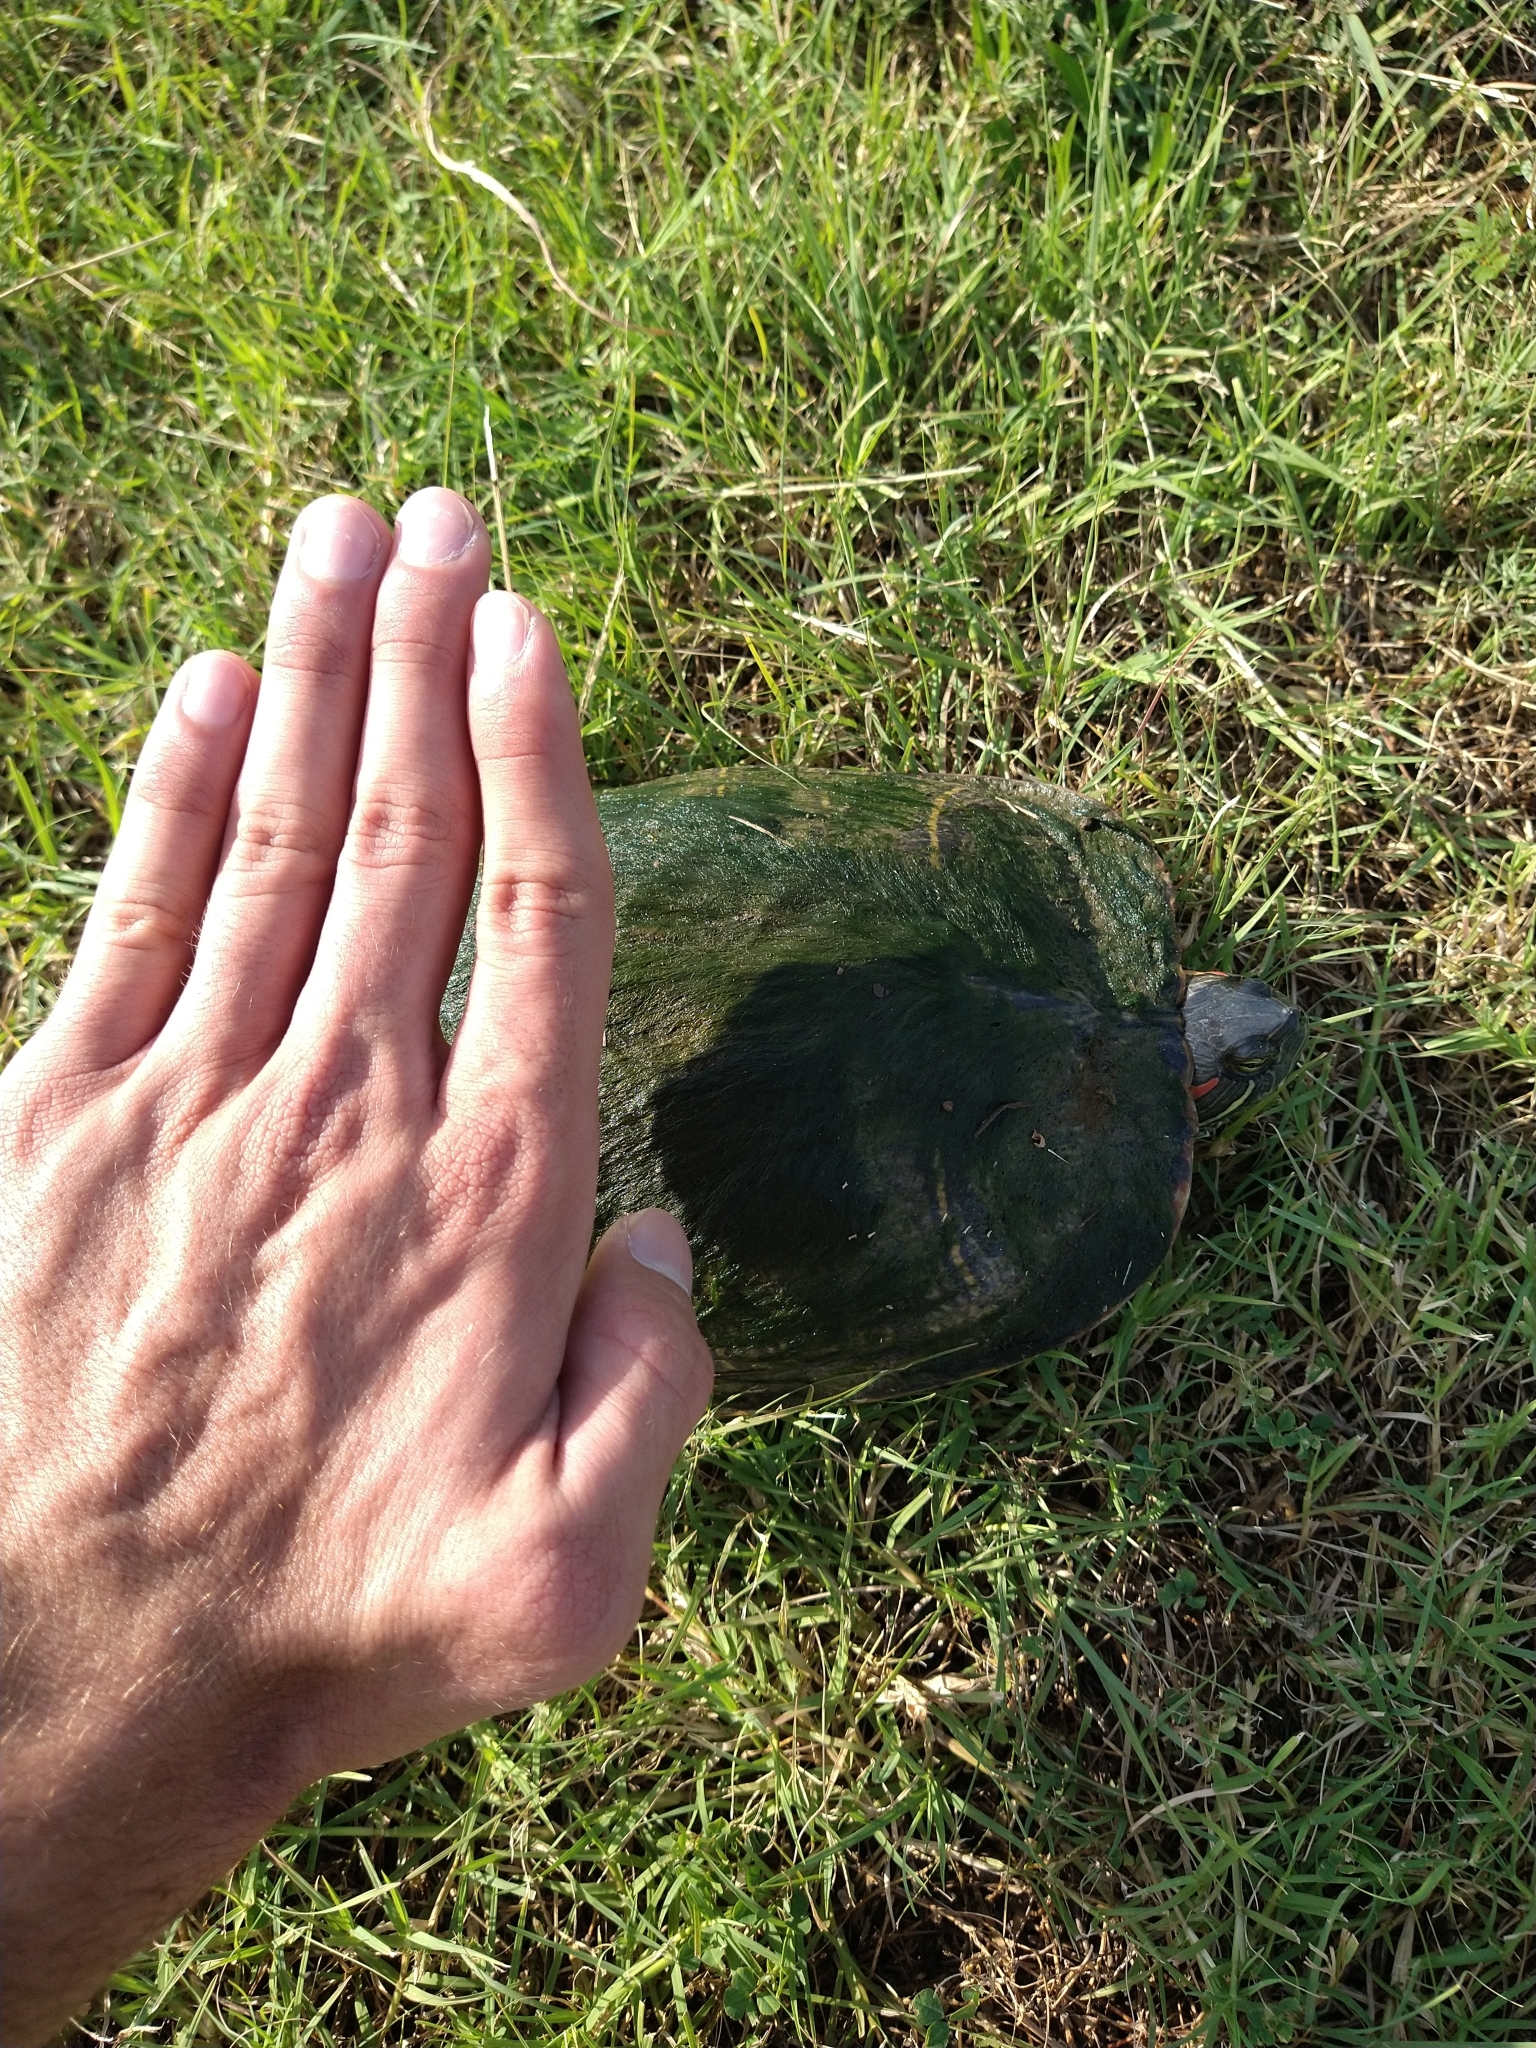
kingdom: Animalia
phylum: Chordata
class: Testudines
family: Emydidae
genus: Trachemys
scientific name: Trachemys scripta
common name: Slider
